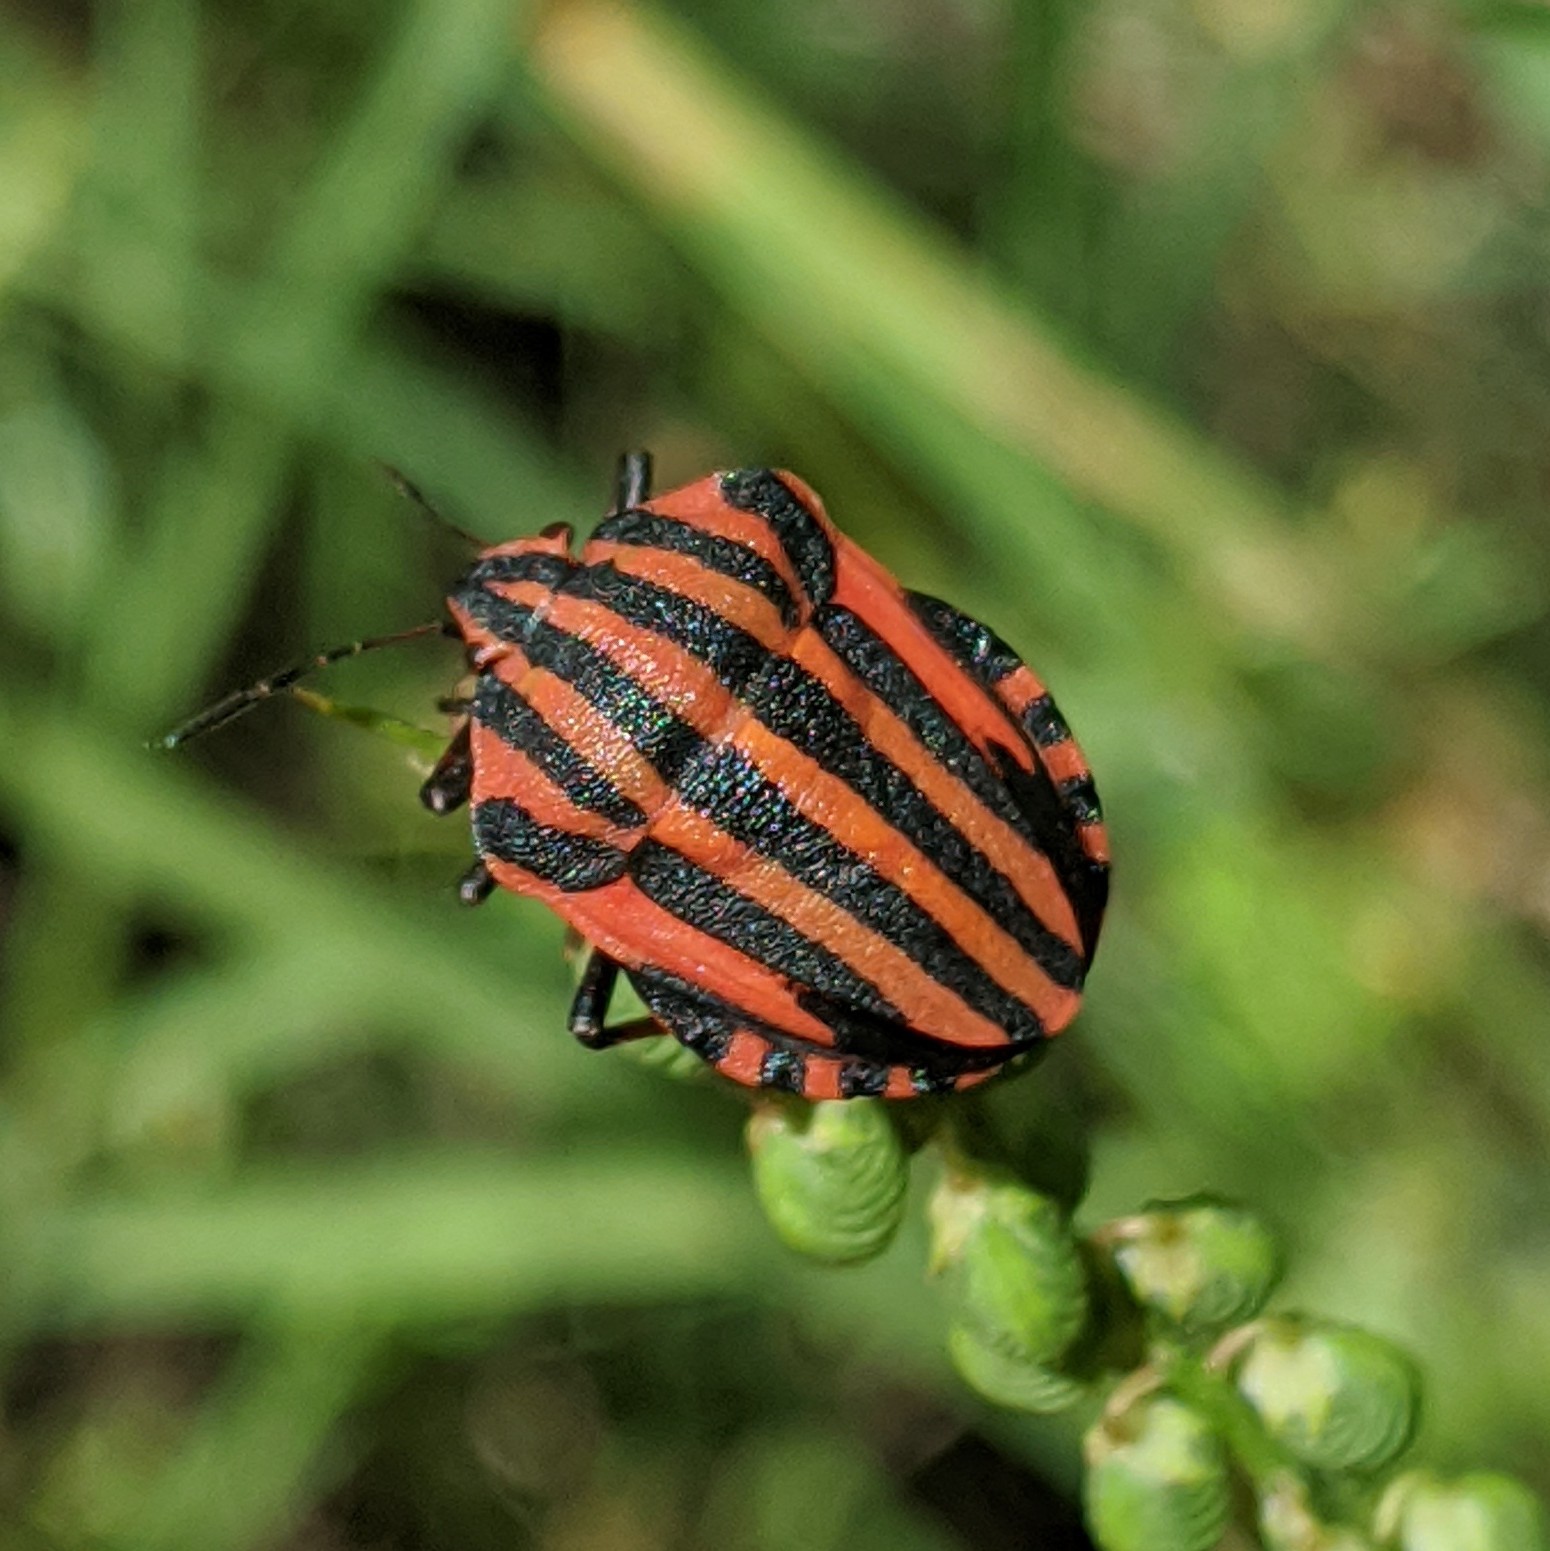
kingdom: Animalia
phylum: Arthropoda
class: Insecta
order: Hemiptera
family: Pentatomidae
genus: Graphosoma
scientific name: Graphosoma italicum
